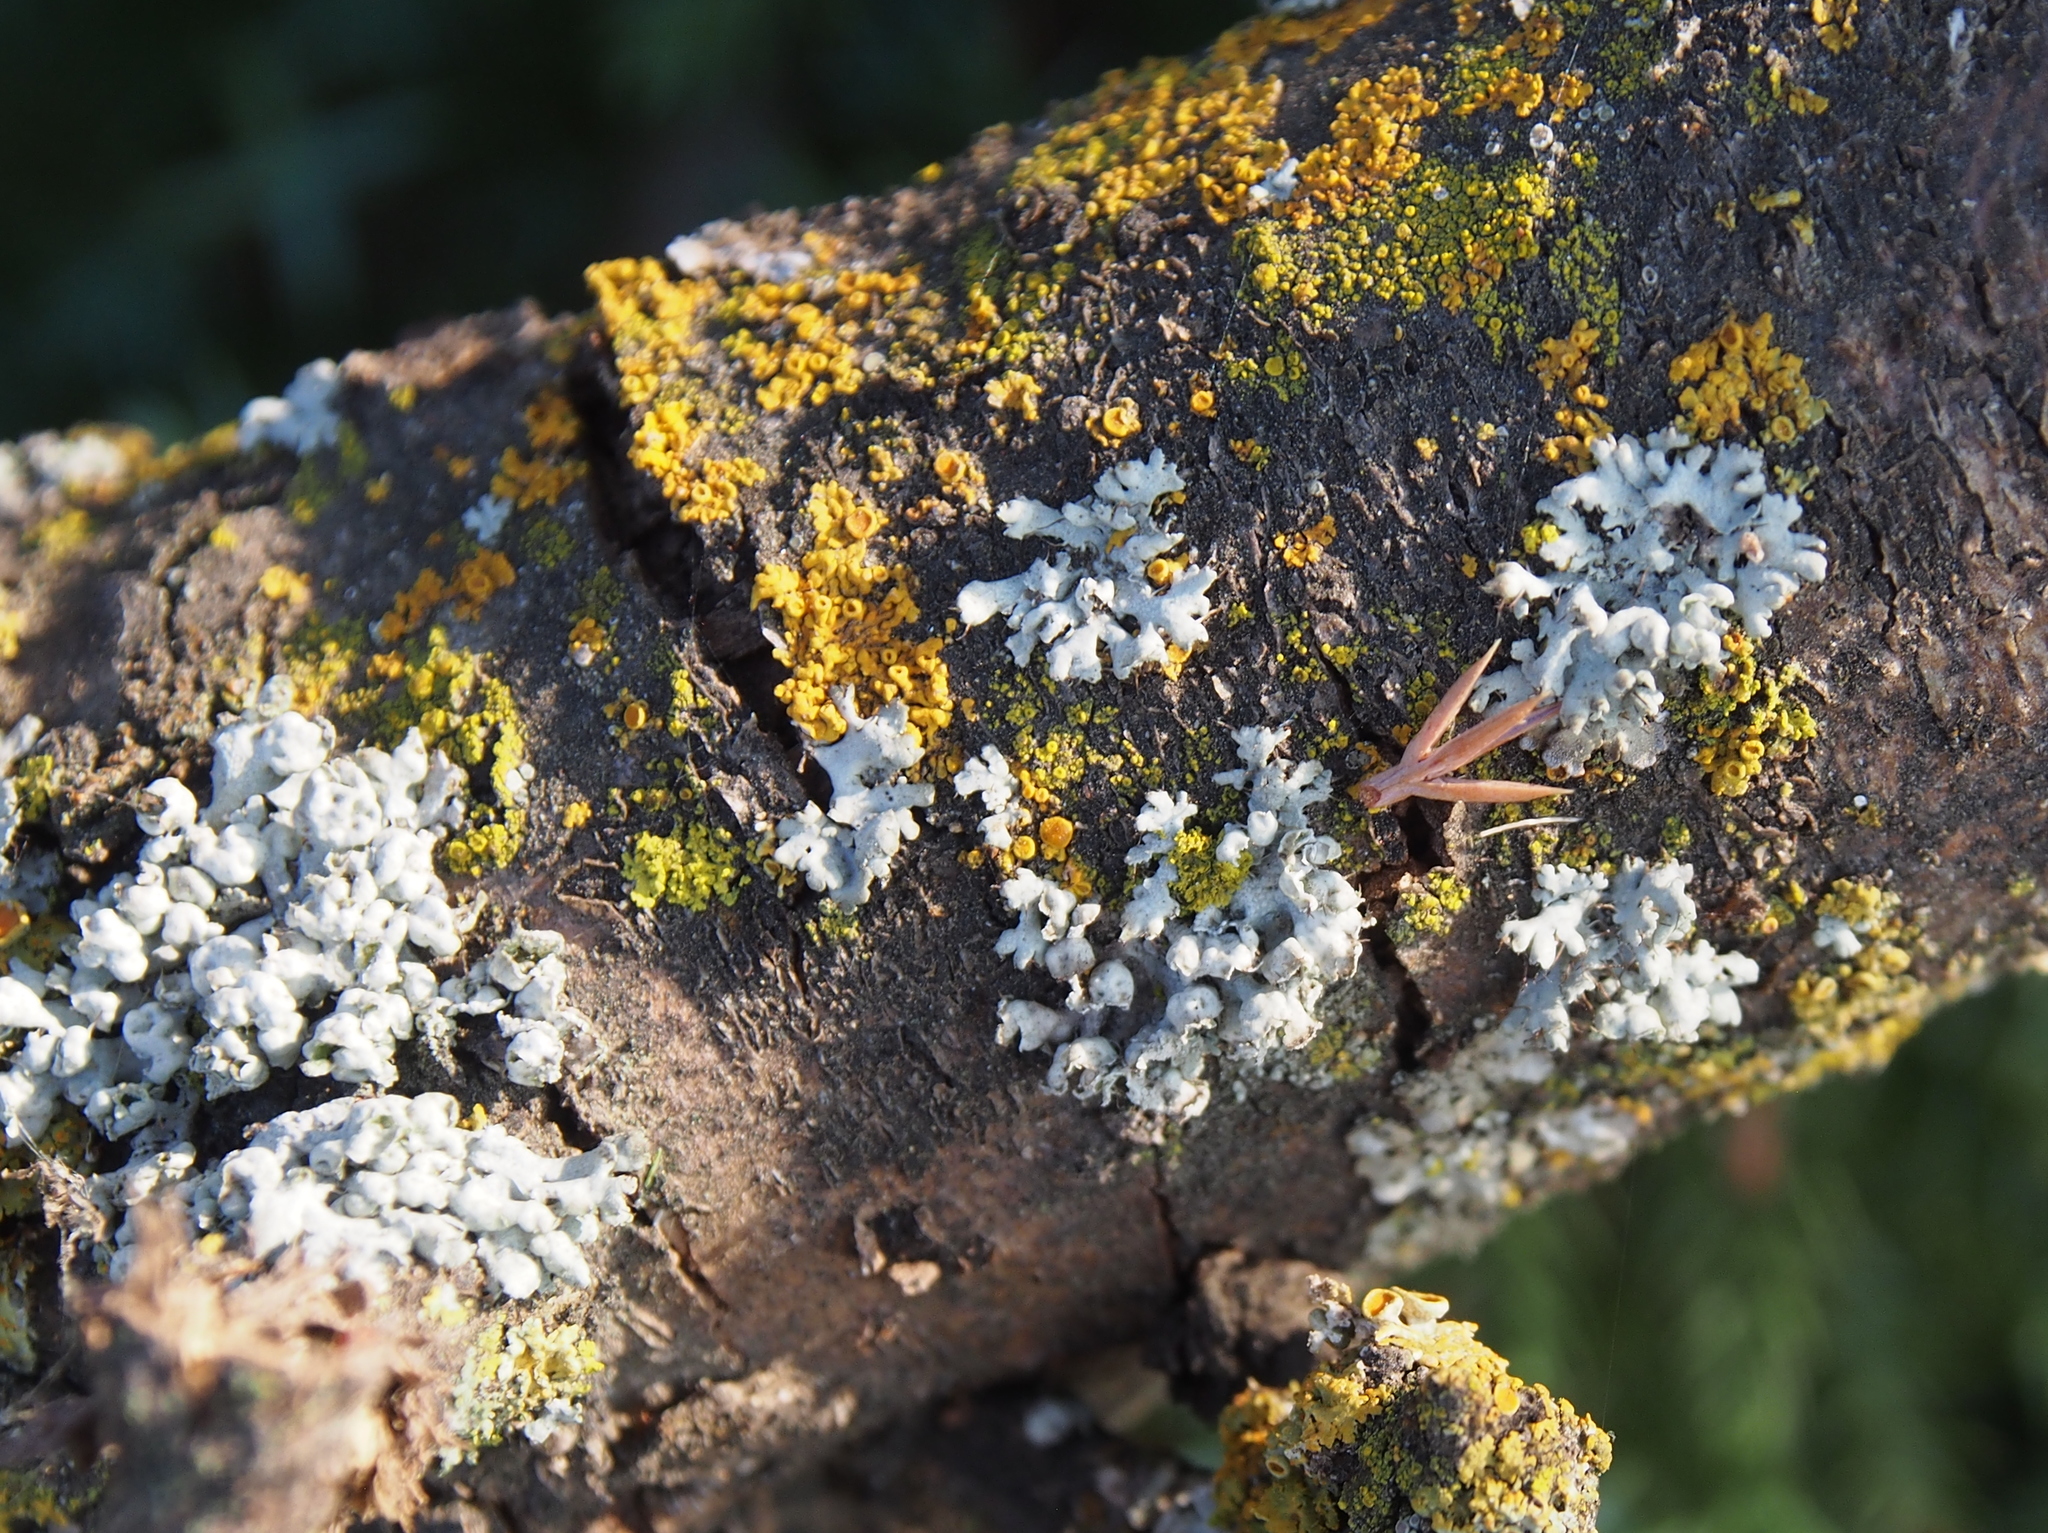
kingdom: Fungi
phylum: Ascomycota
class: Lecanoromycetes
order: Teloschistales
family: Teloschistaceae
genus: Gallowayella
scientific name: Gallowayella hasseana
